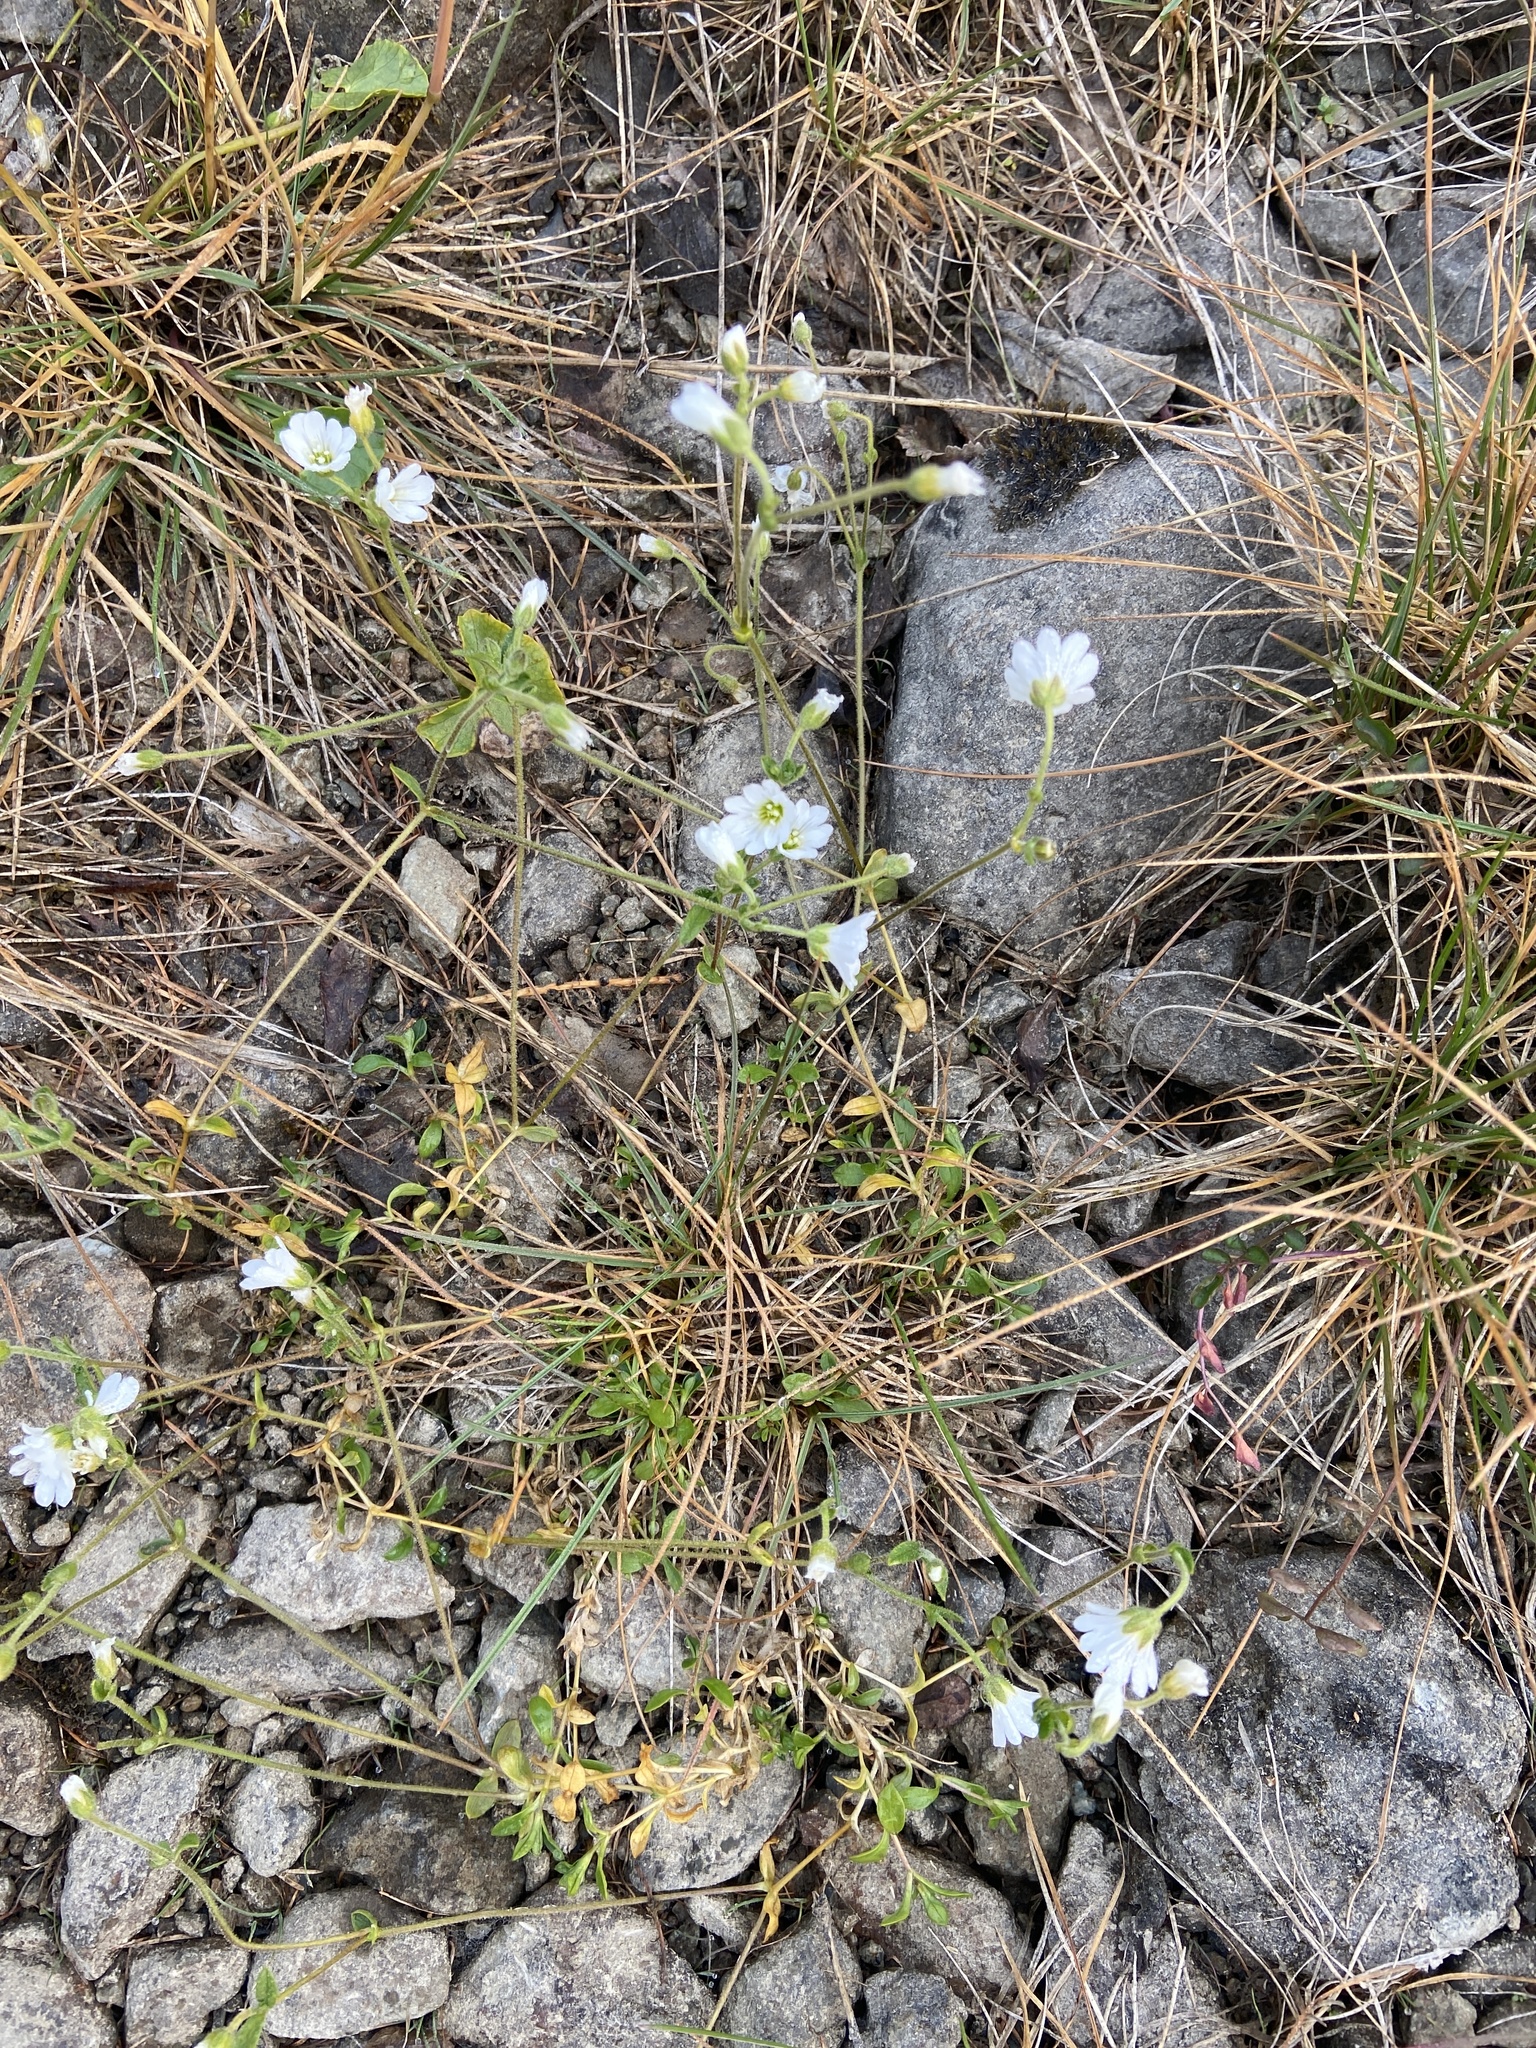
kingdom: Plantae
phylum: Tracheophyta
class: Magnoliopsida
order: Caryophyllales
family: Caryophyllaceae
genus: Cerastium
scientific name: Cerastium beeringianum
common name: Bering mouse-ear chickweed
